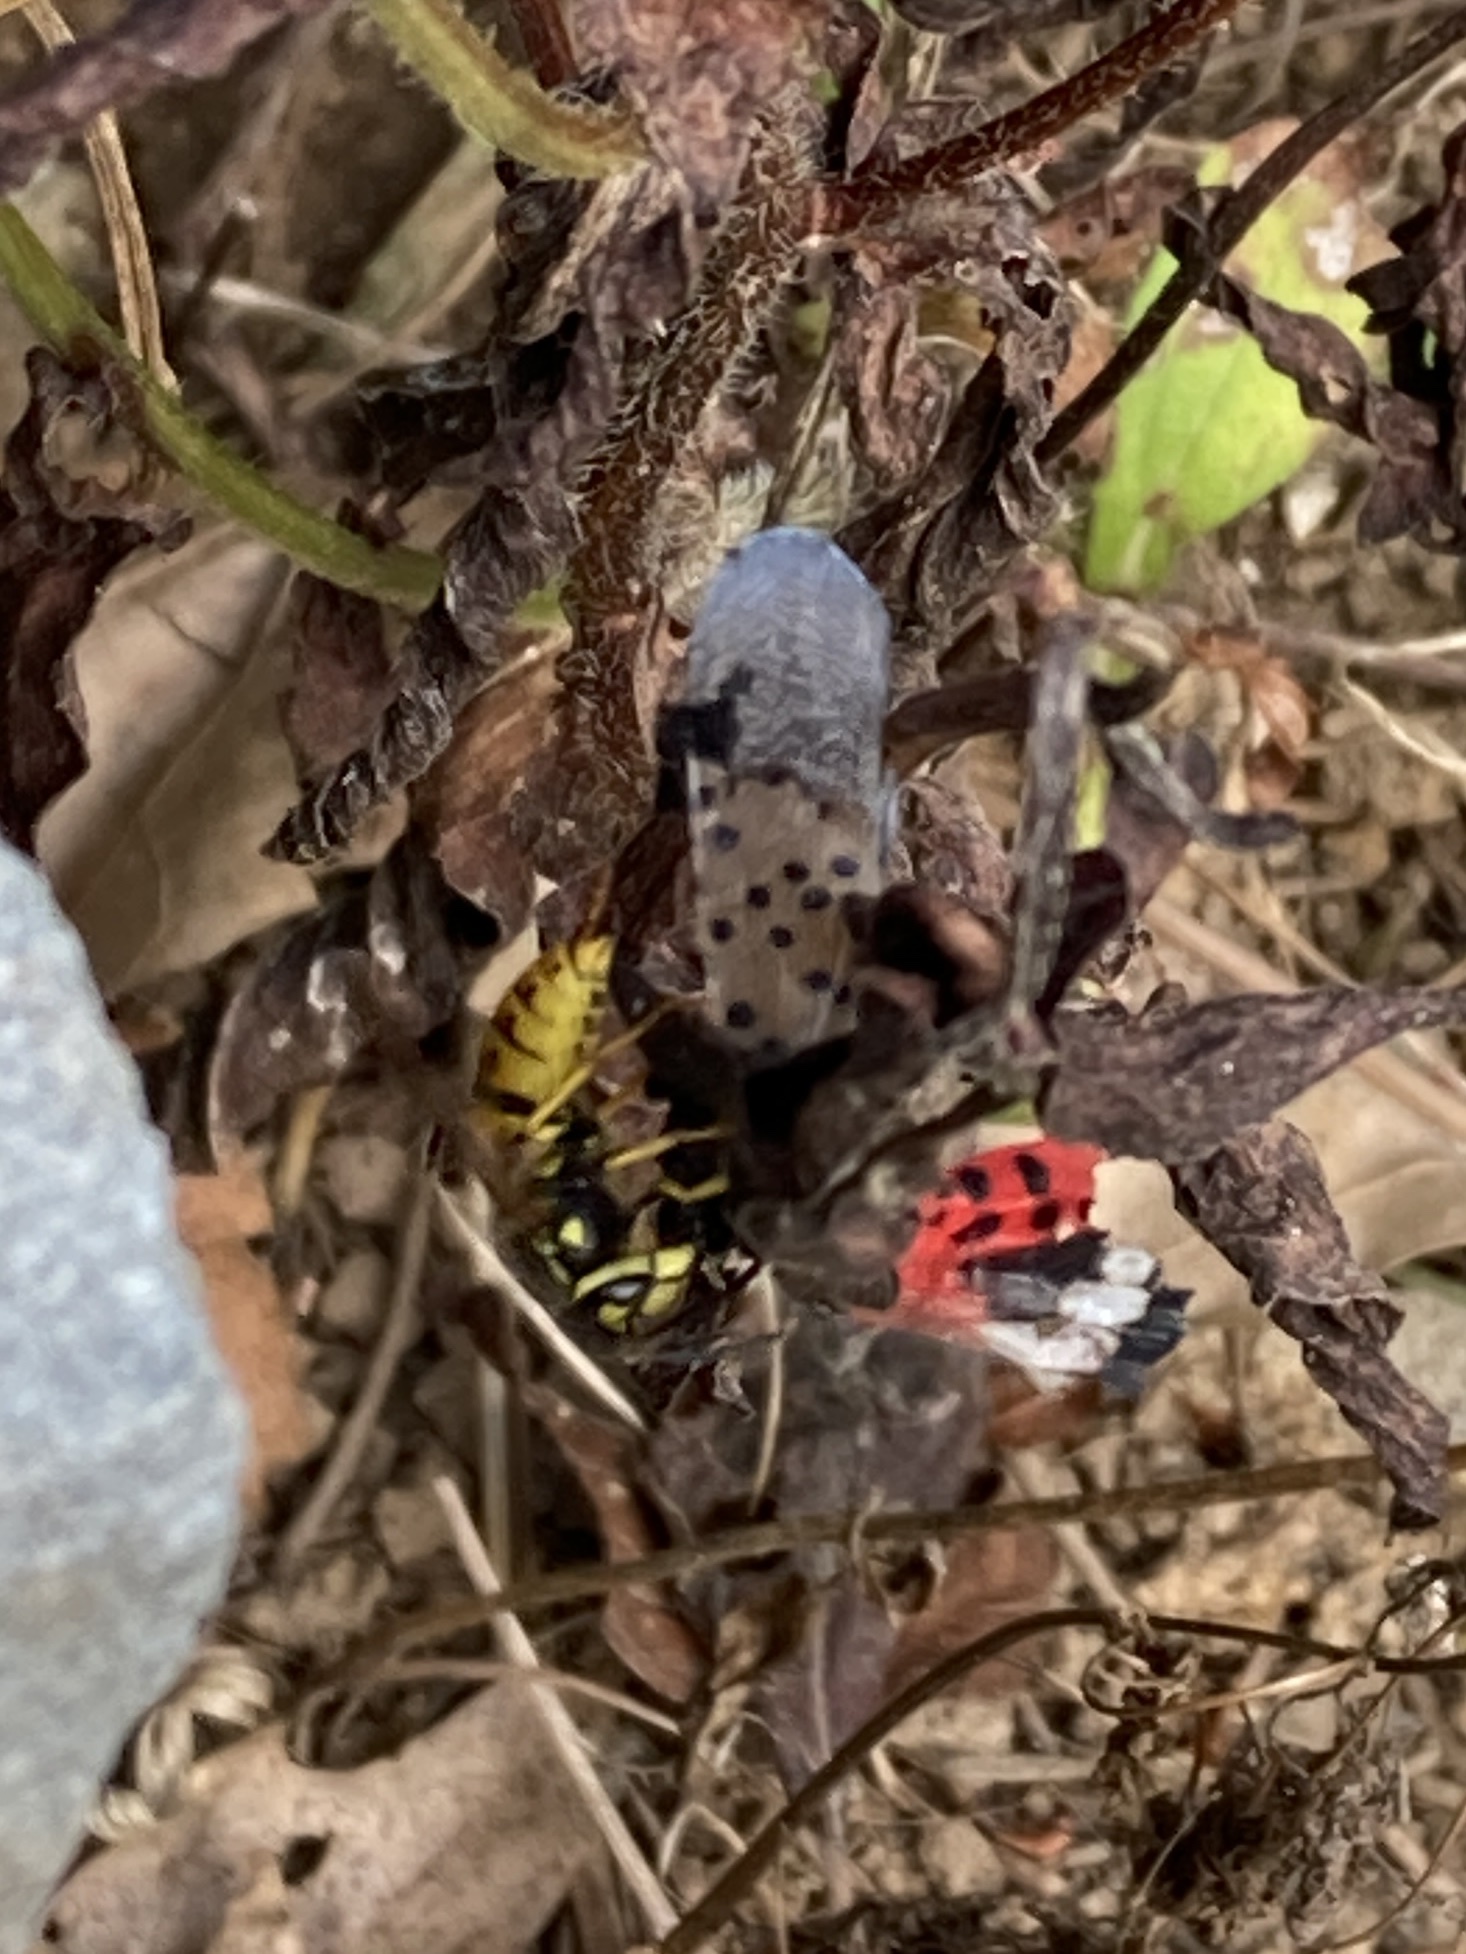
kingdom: Animalia
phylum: Arthropoda
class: Insecta
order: Hemiptera
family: Fulgoridae
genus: Lycorma
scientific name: Lycorma delicatula
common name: Spotted lanternfly
